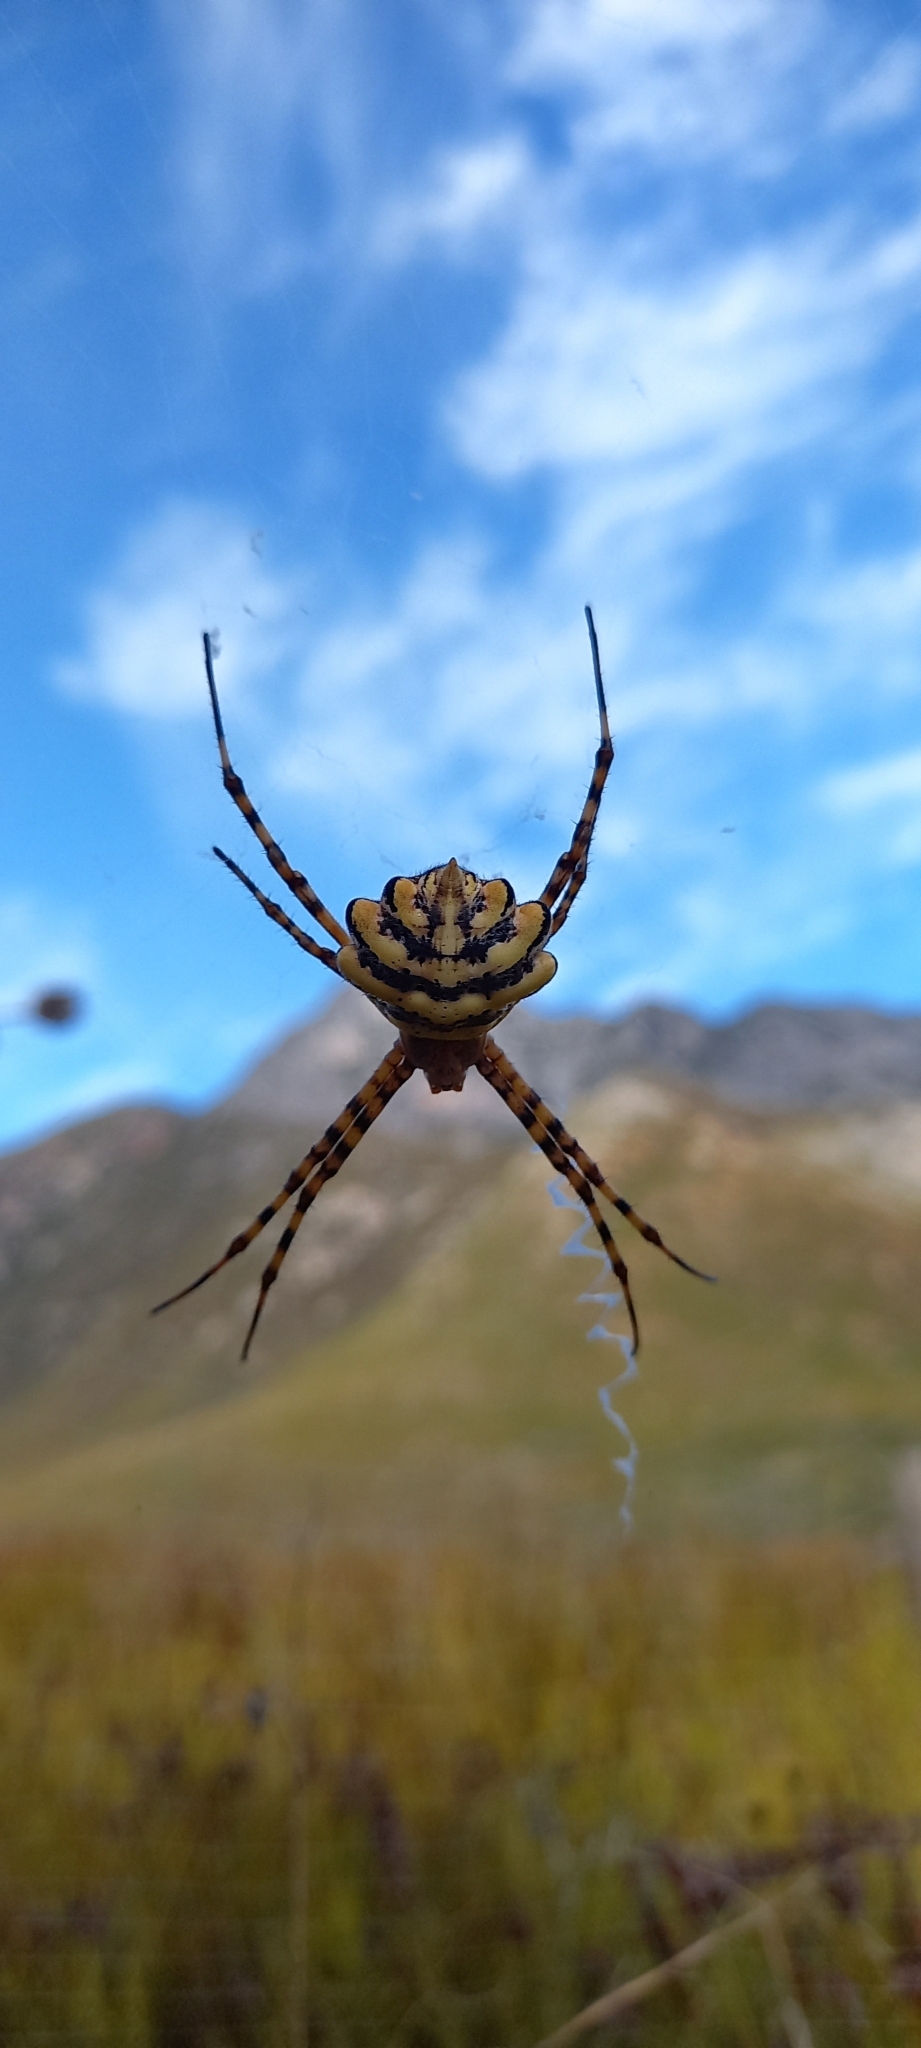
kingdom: Animalia
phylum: Arthropoda
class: Arachnida
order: Araneae
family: Araneidae
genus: Argiope
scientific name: Argiope australis
